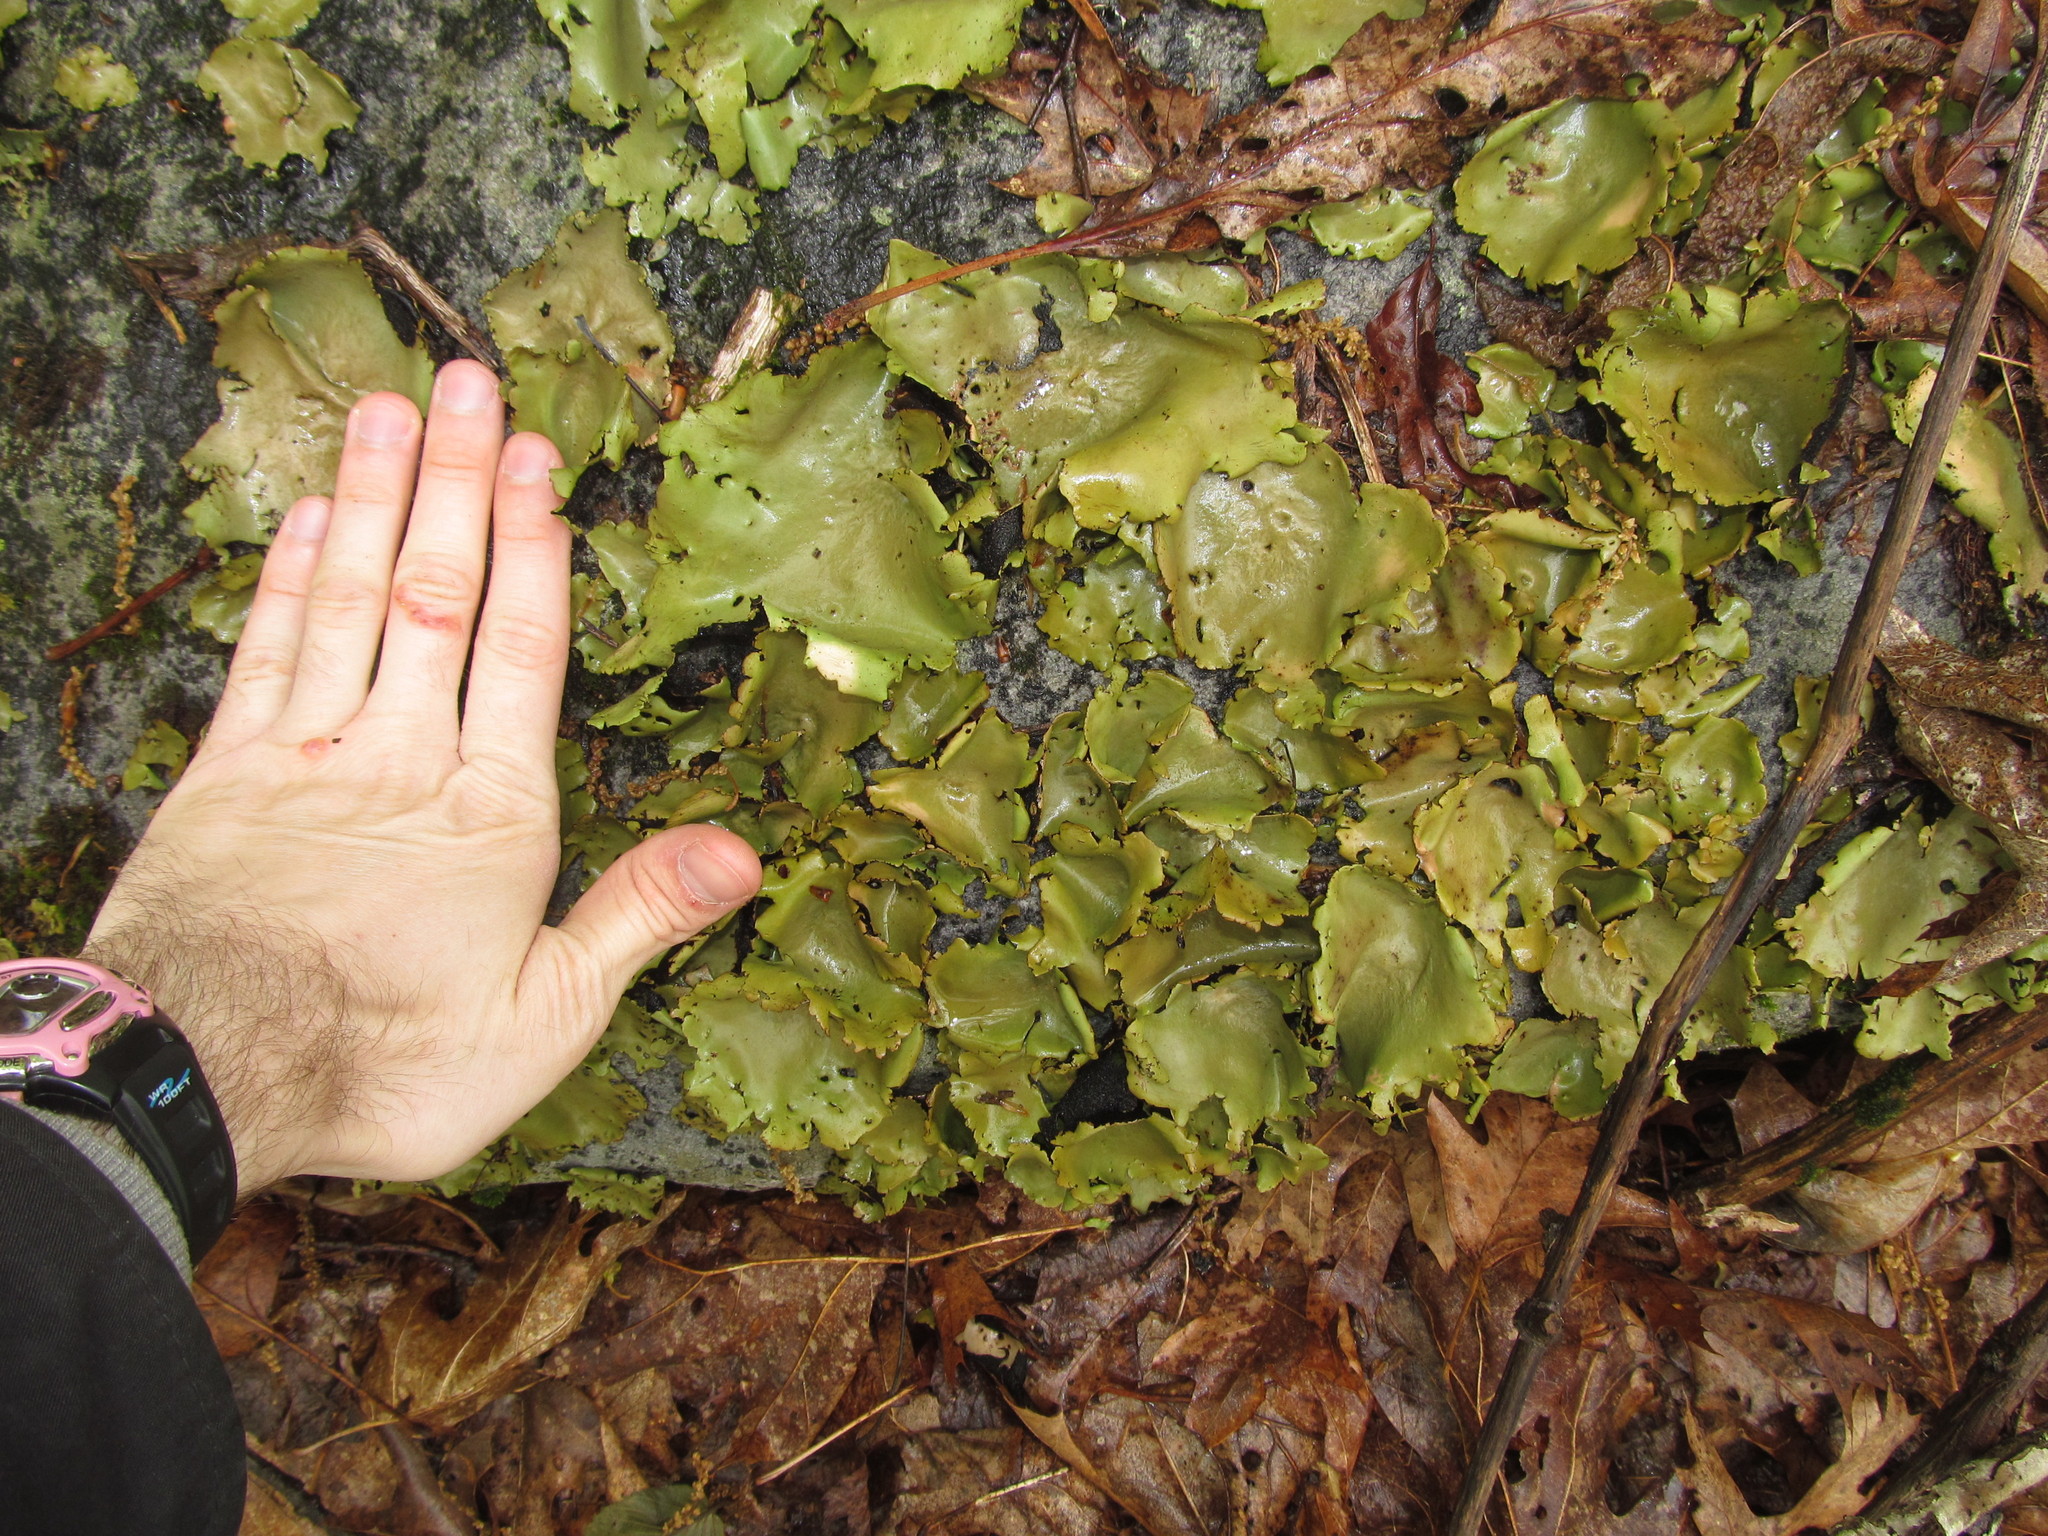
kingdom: Fungi
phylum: Ascomycota
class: Lecanoromycetes
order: Umbilicariales
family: Umbilicariaceae
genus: Umbilicaria
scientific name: Umbilicaria mammulata
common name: Smooth rock tripe
